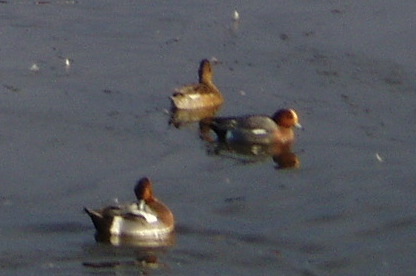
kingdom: Animalia
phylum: Chordata
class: Aves
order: Anseriformes
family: Anatidae
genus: Mareca
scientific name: Mareca penelope
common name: Eurasian wigeon
